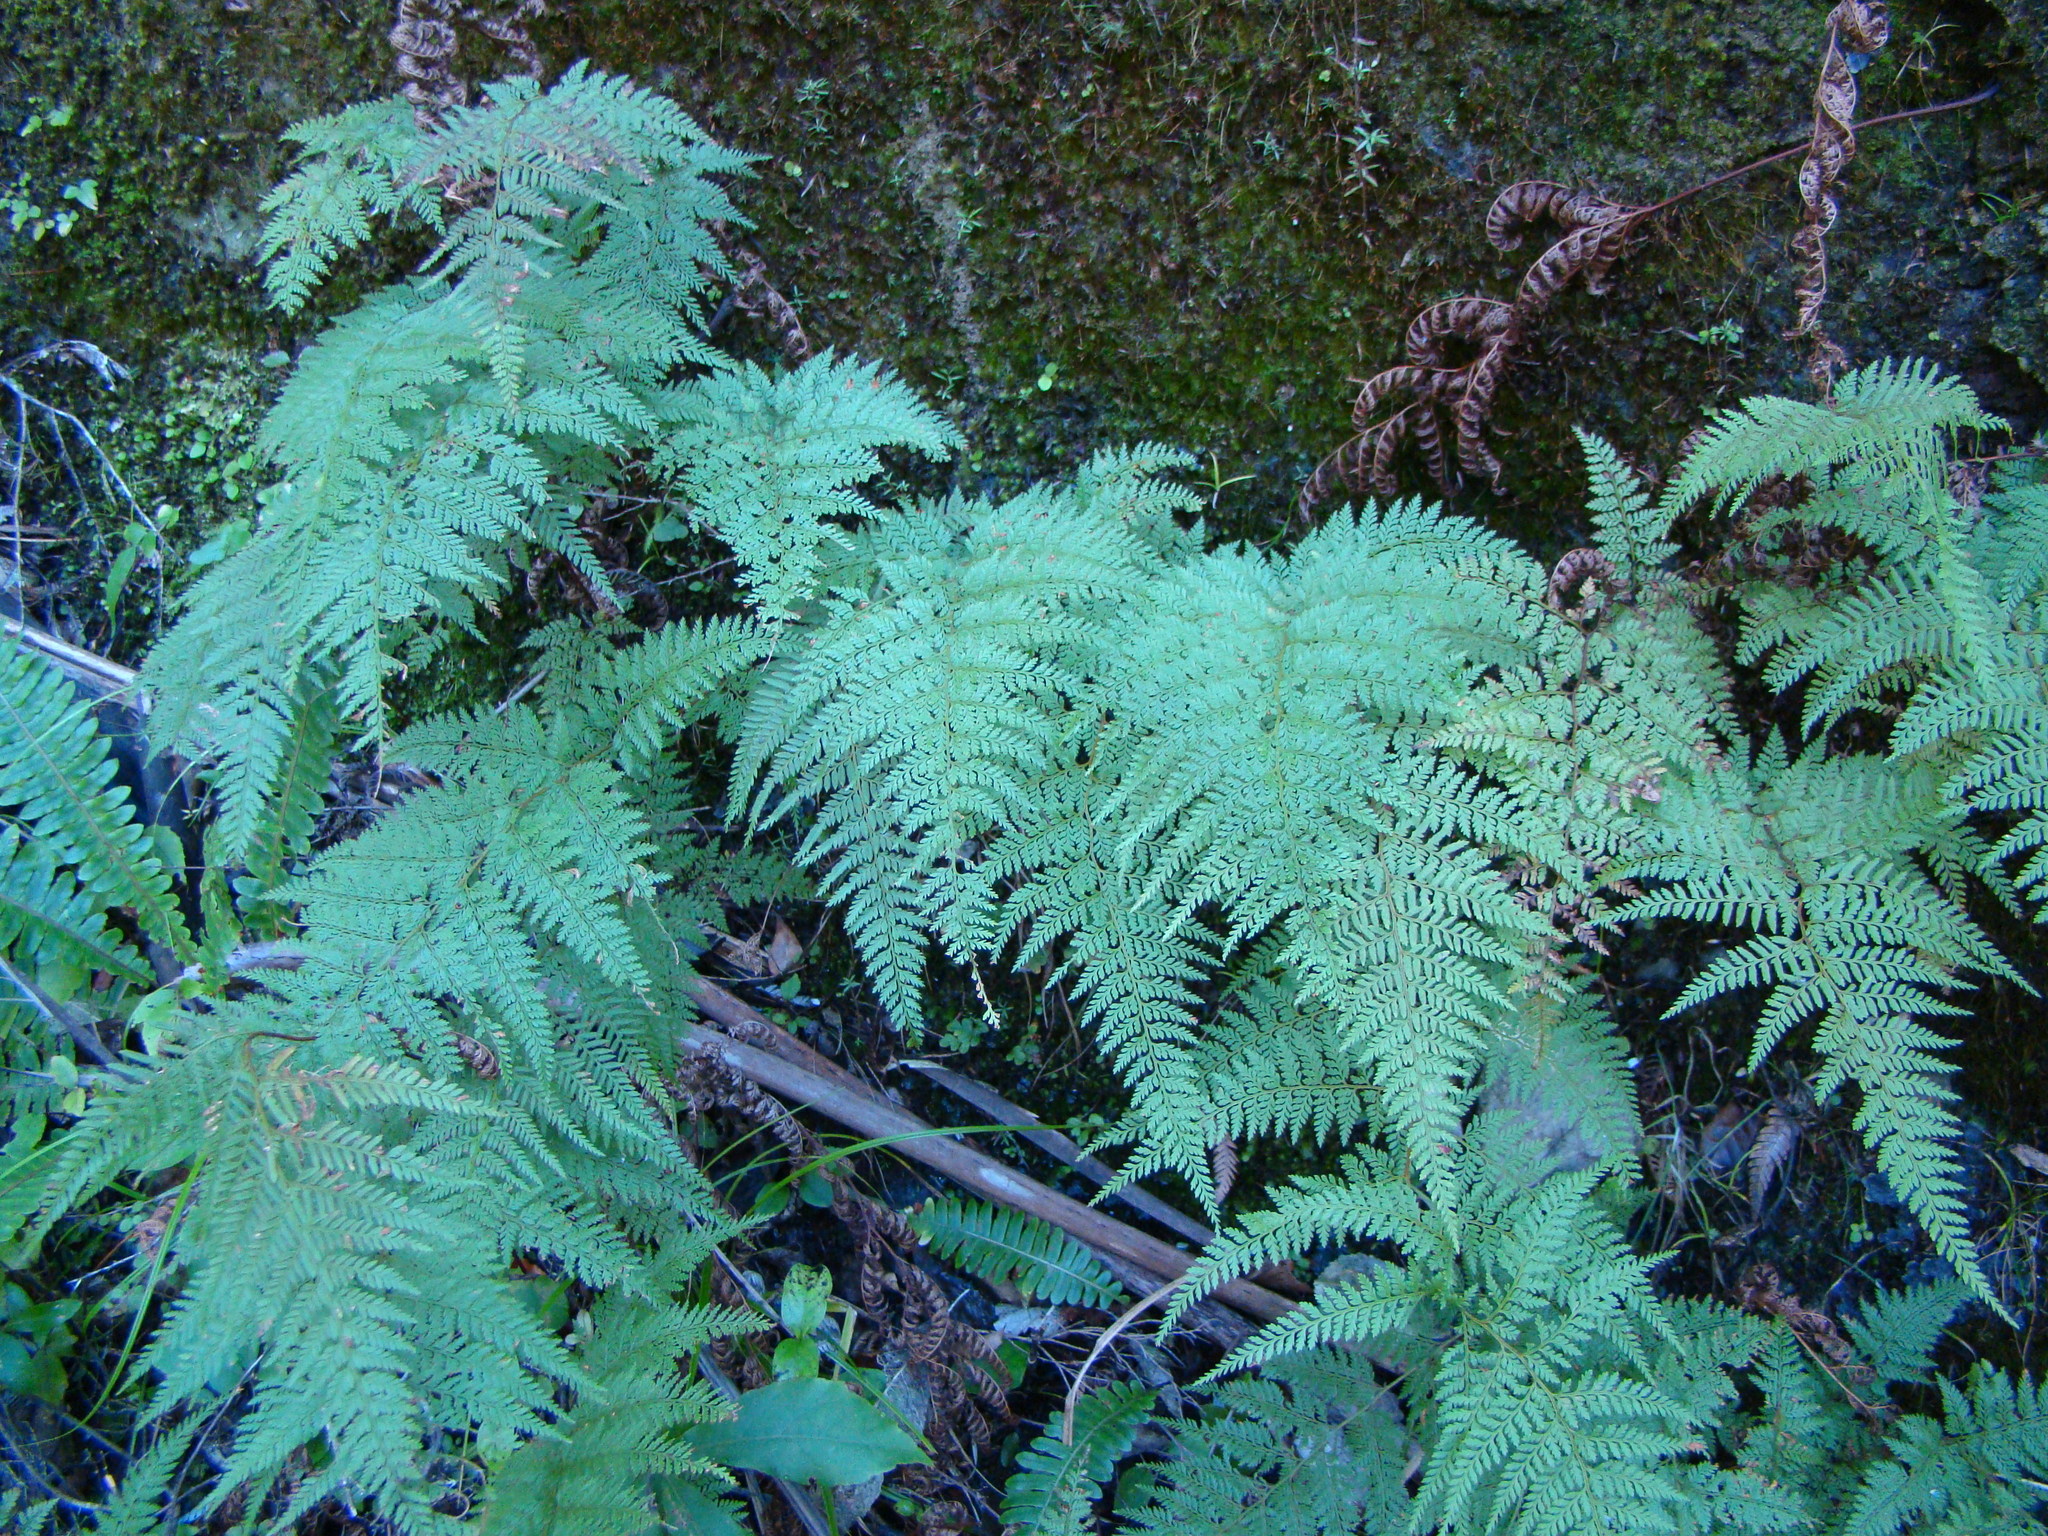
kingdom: Plantae
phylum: Tracheophyta
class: Polypodiopsida
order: Polypodiales
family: Dennstaedtiaceae
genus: Paesia
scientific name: Paesia scaberula
